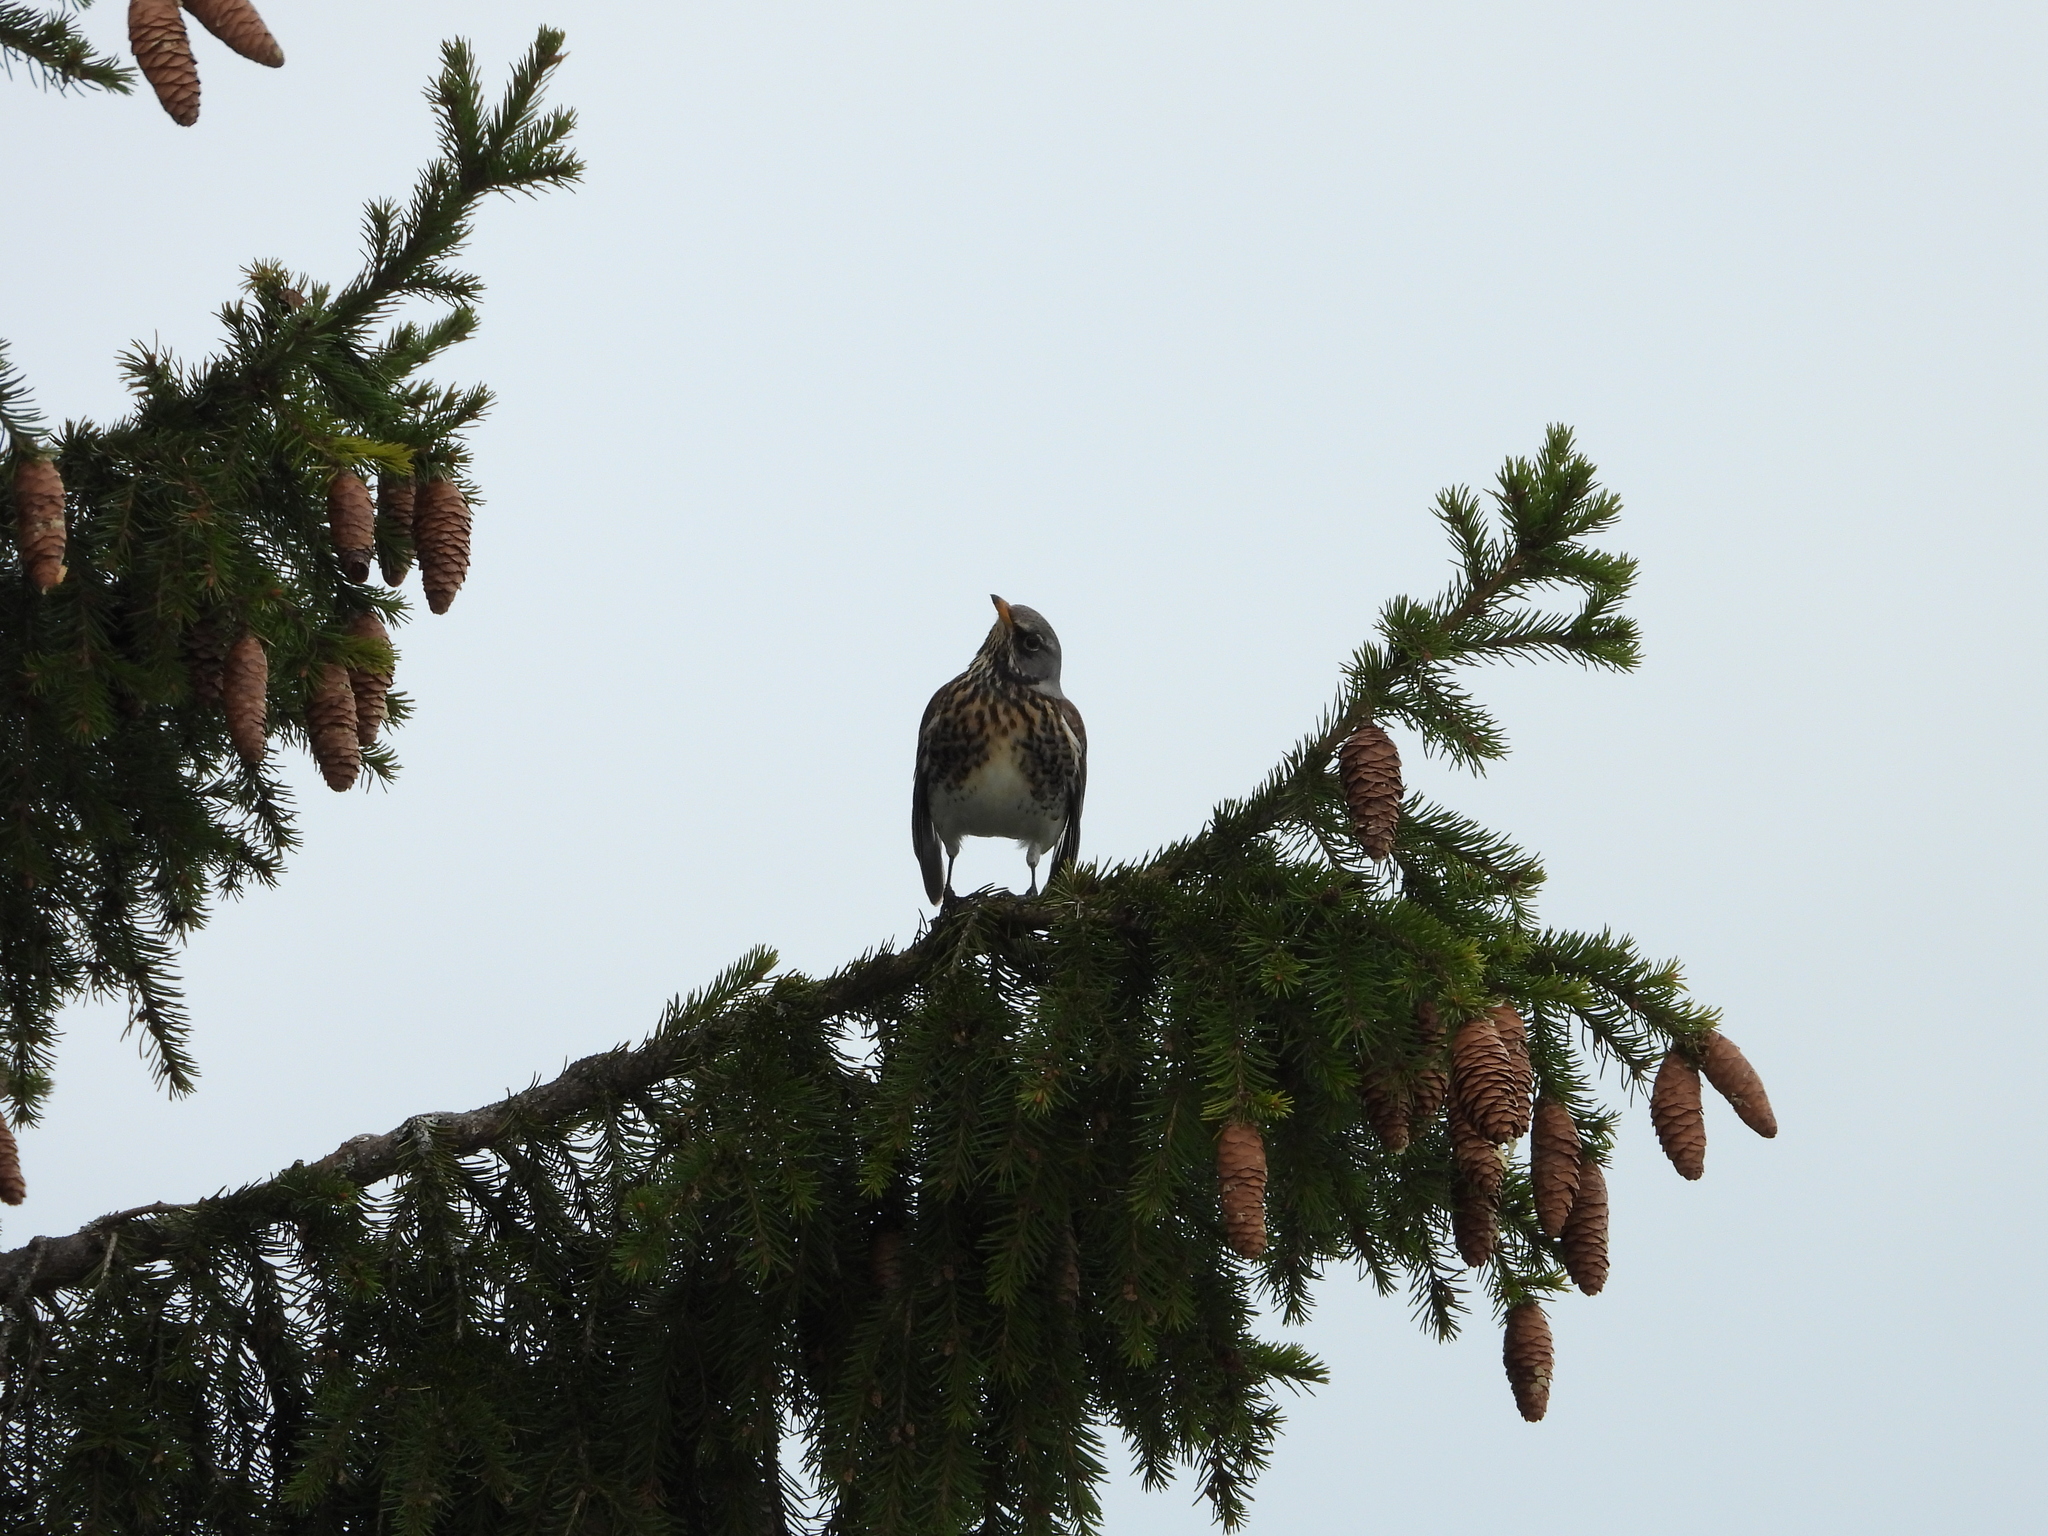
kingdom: Animalia
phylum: Chordata
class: Aves
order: Passeriformes
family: Turdidae
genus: Turdus
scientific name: Turdus pilaris
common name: Fieldfare
